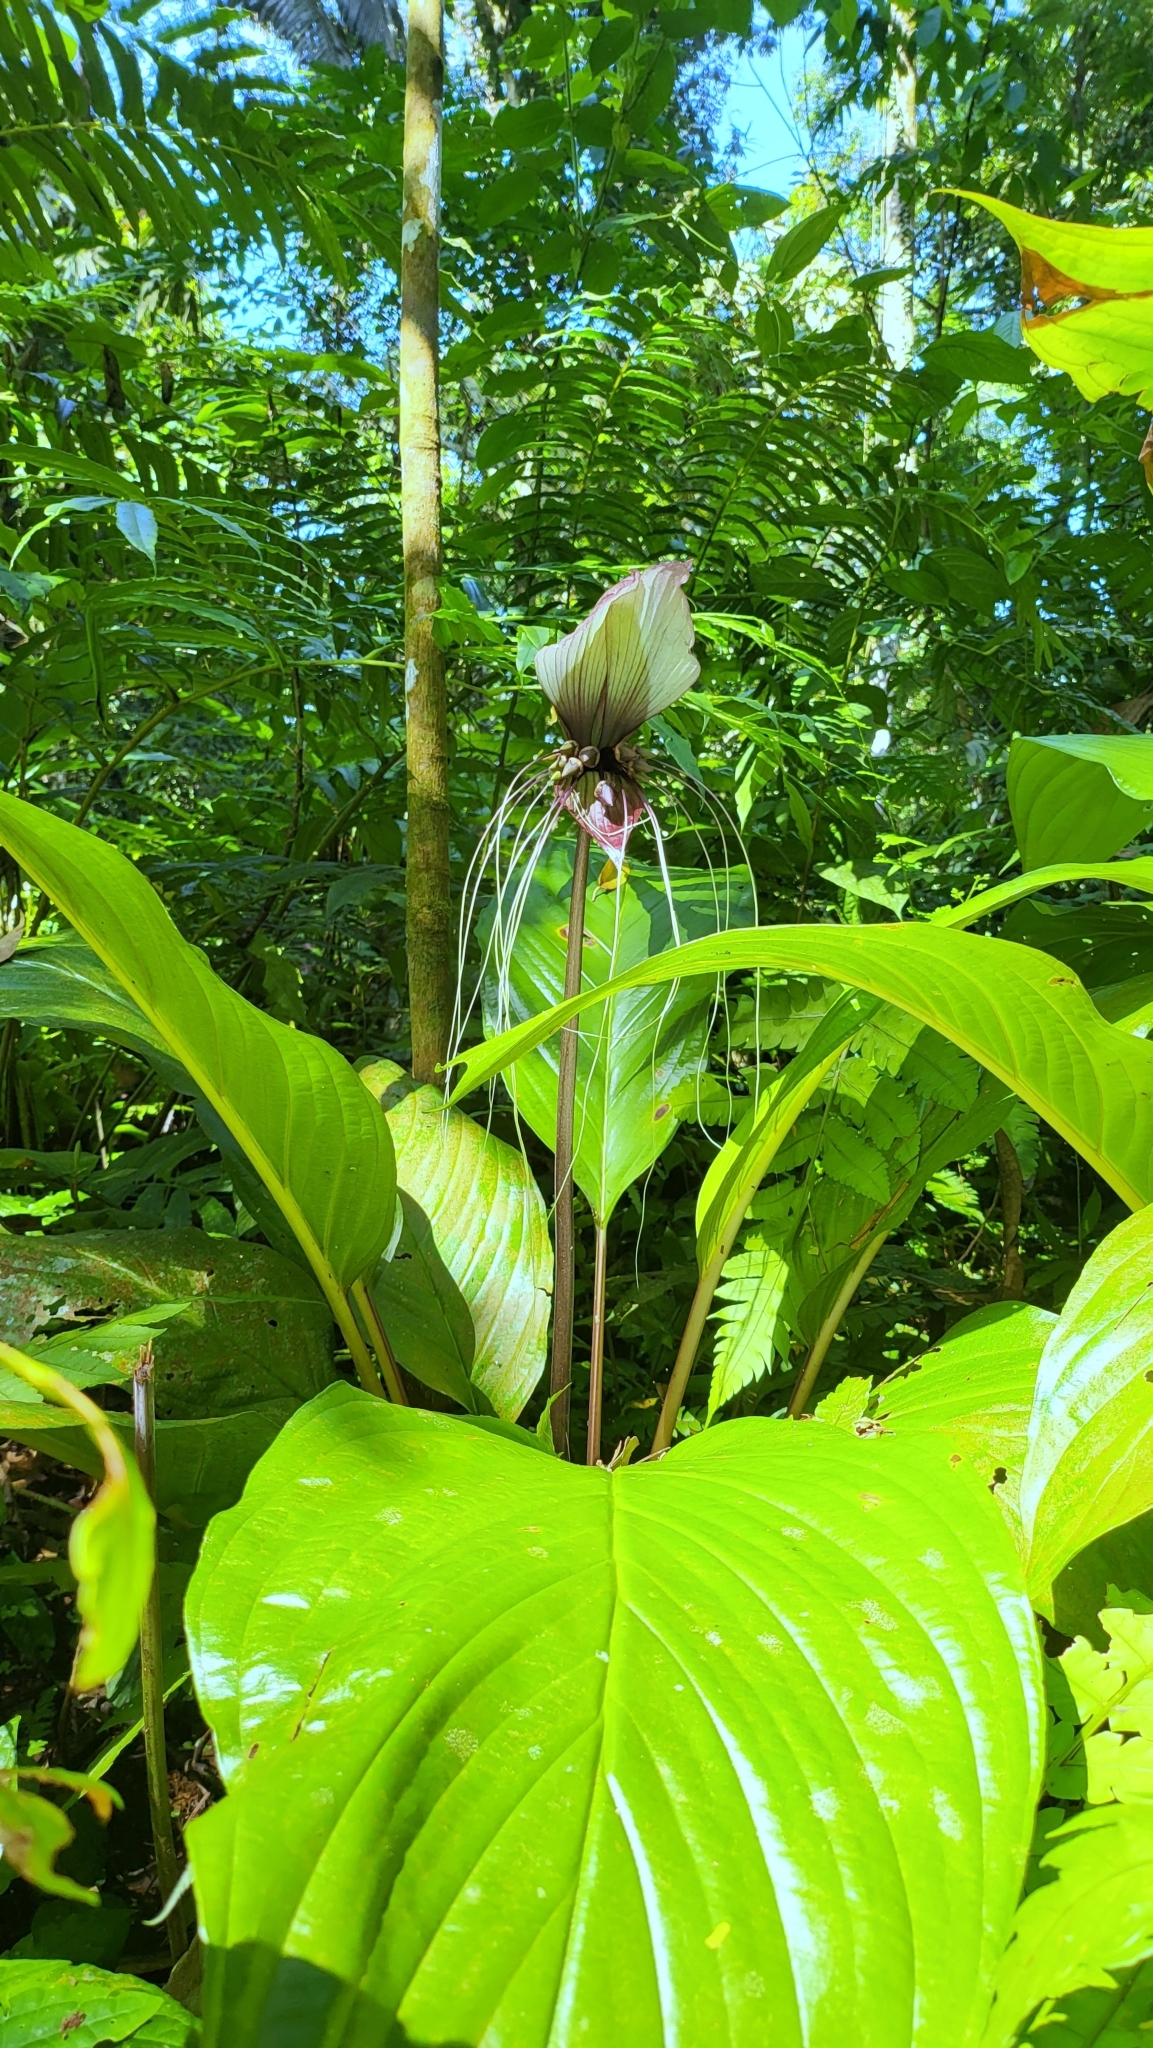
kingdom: Plantae
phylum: Tracheophyta
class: Liliopsida
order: Dioscoreales
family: Dioscoreaceae
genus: Tacca
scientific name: Tacca integrifolia
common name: Batplant
